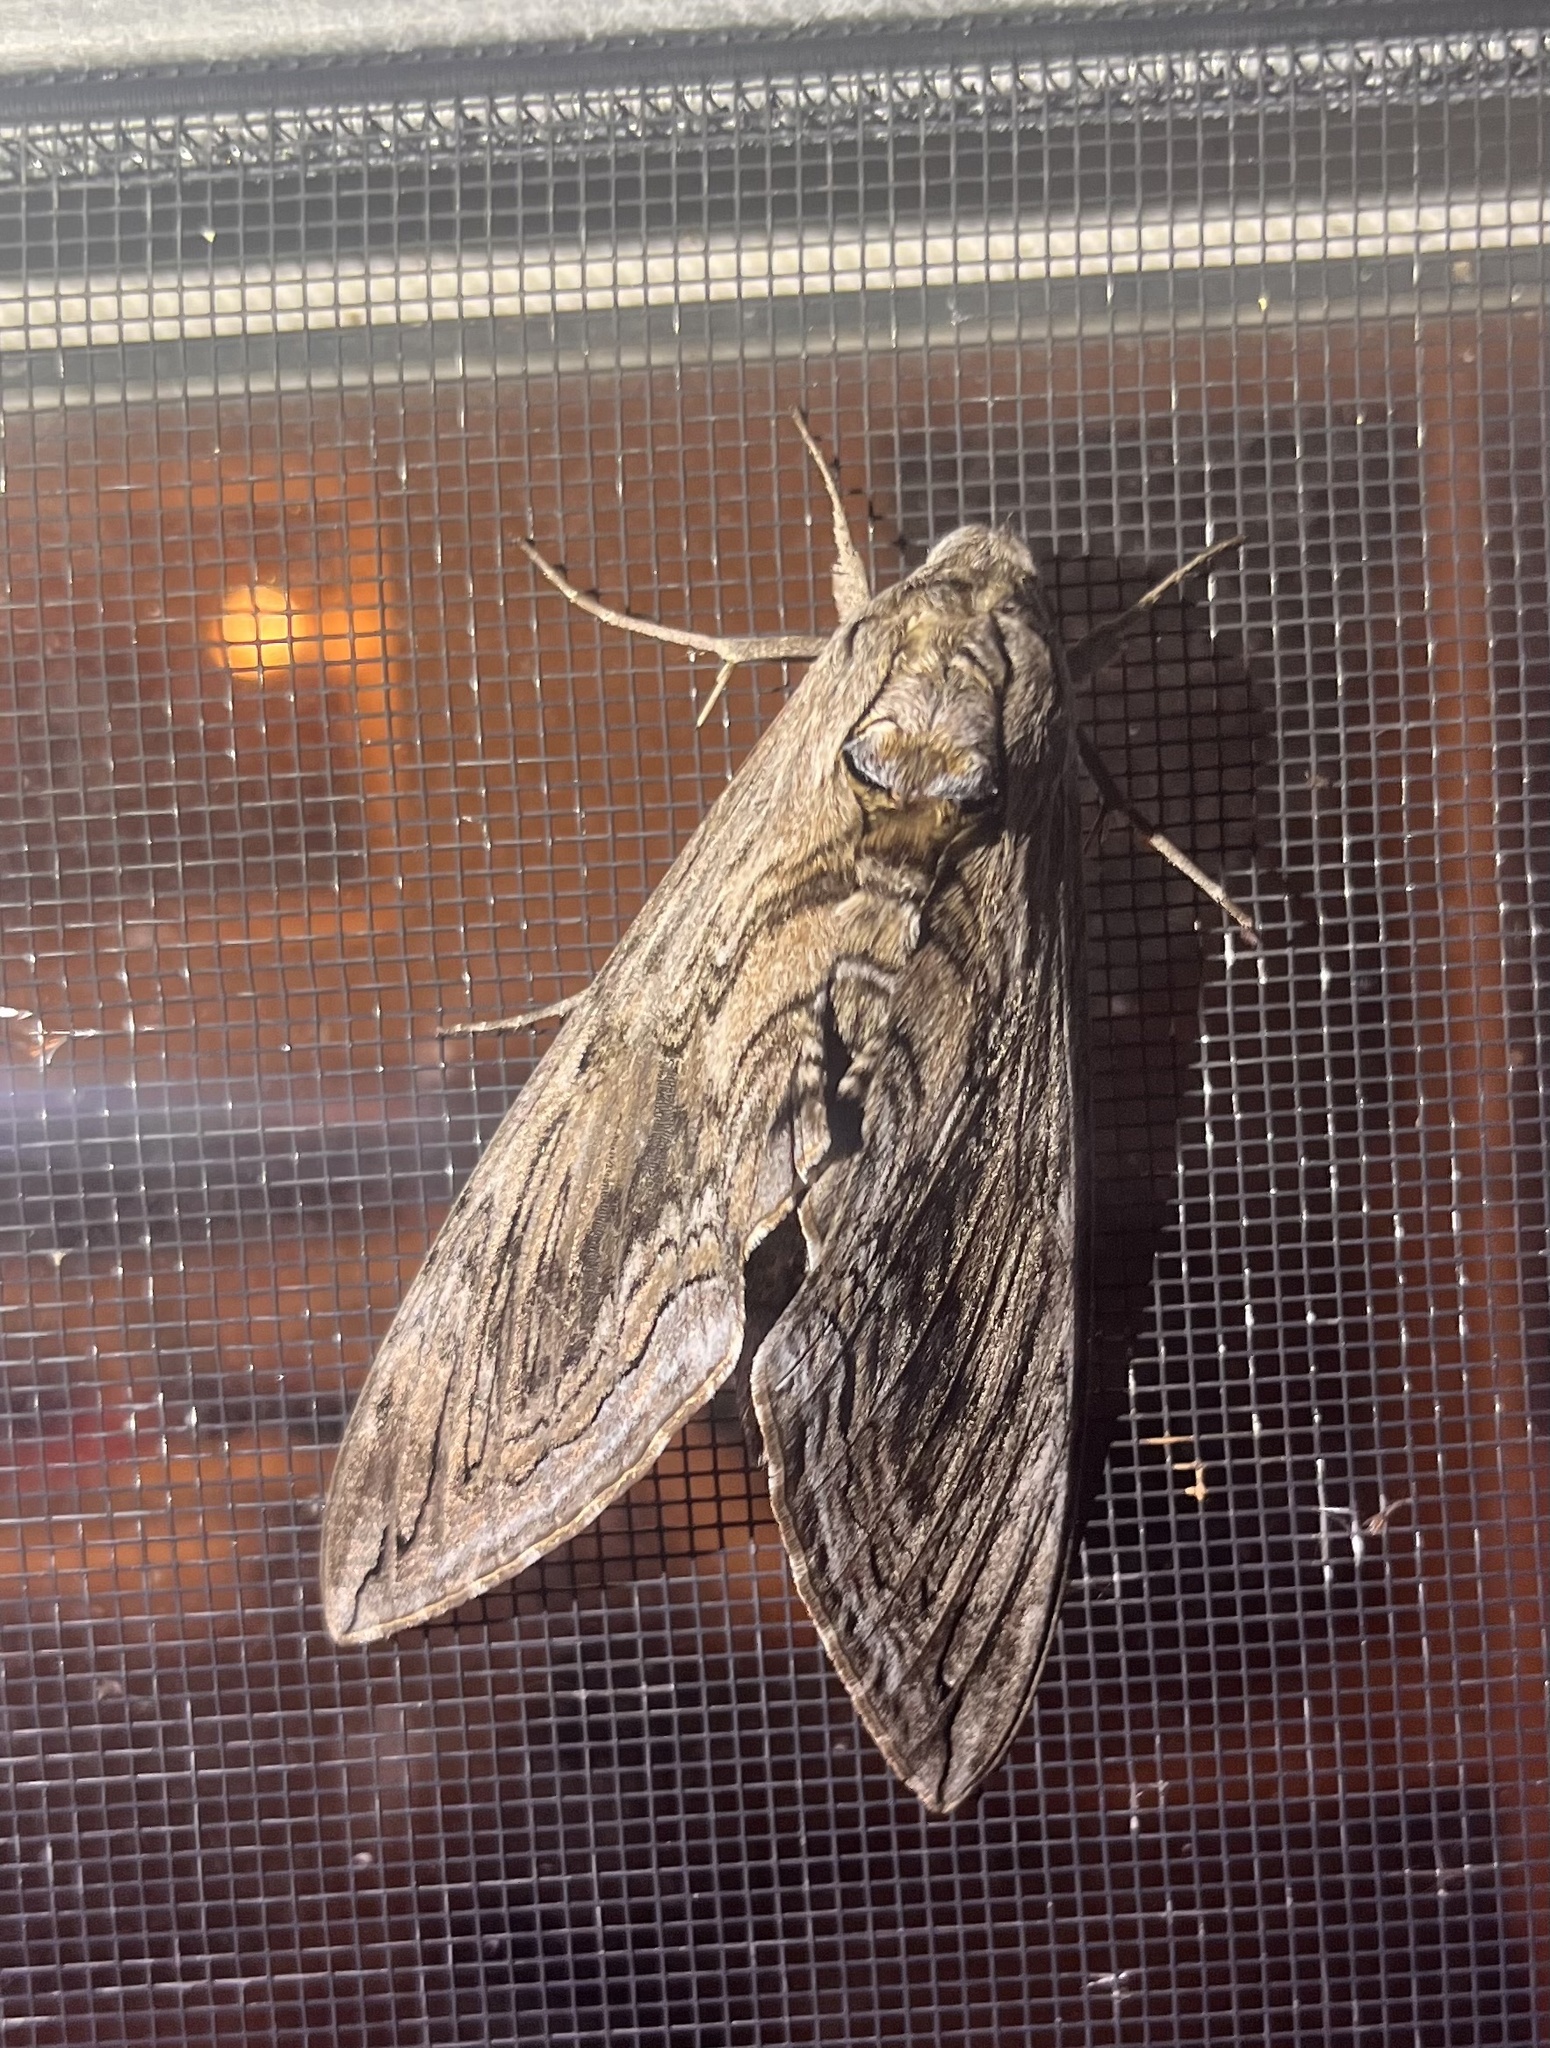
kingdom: Animalia
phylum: Arthropoda
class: Insecta
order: Lepidoptera
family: Sphingidae
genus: Manduca
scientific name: Manduca quinquemaculatus
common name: Five-spotted hawk-moth
